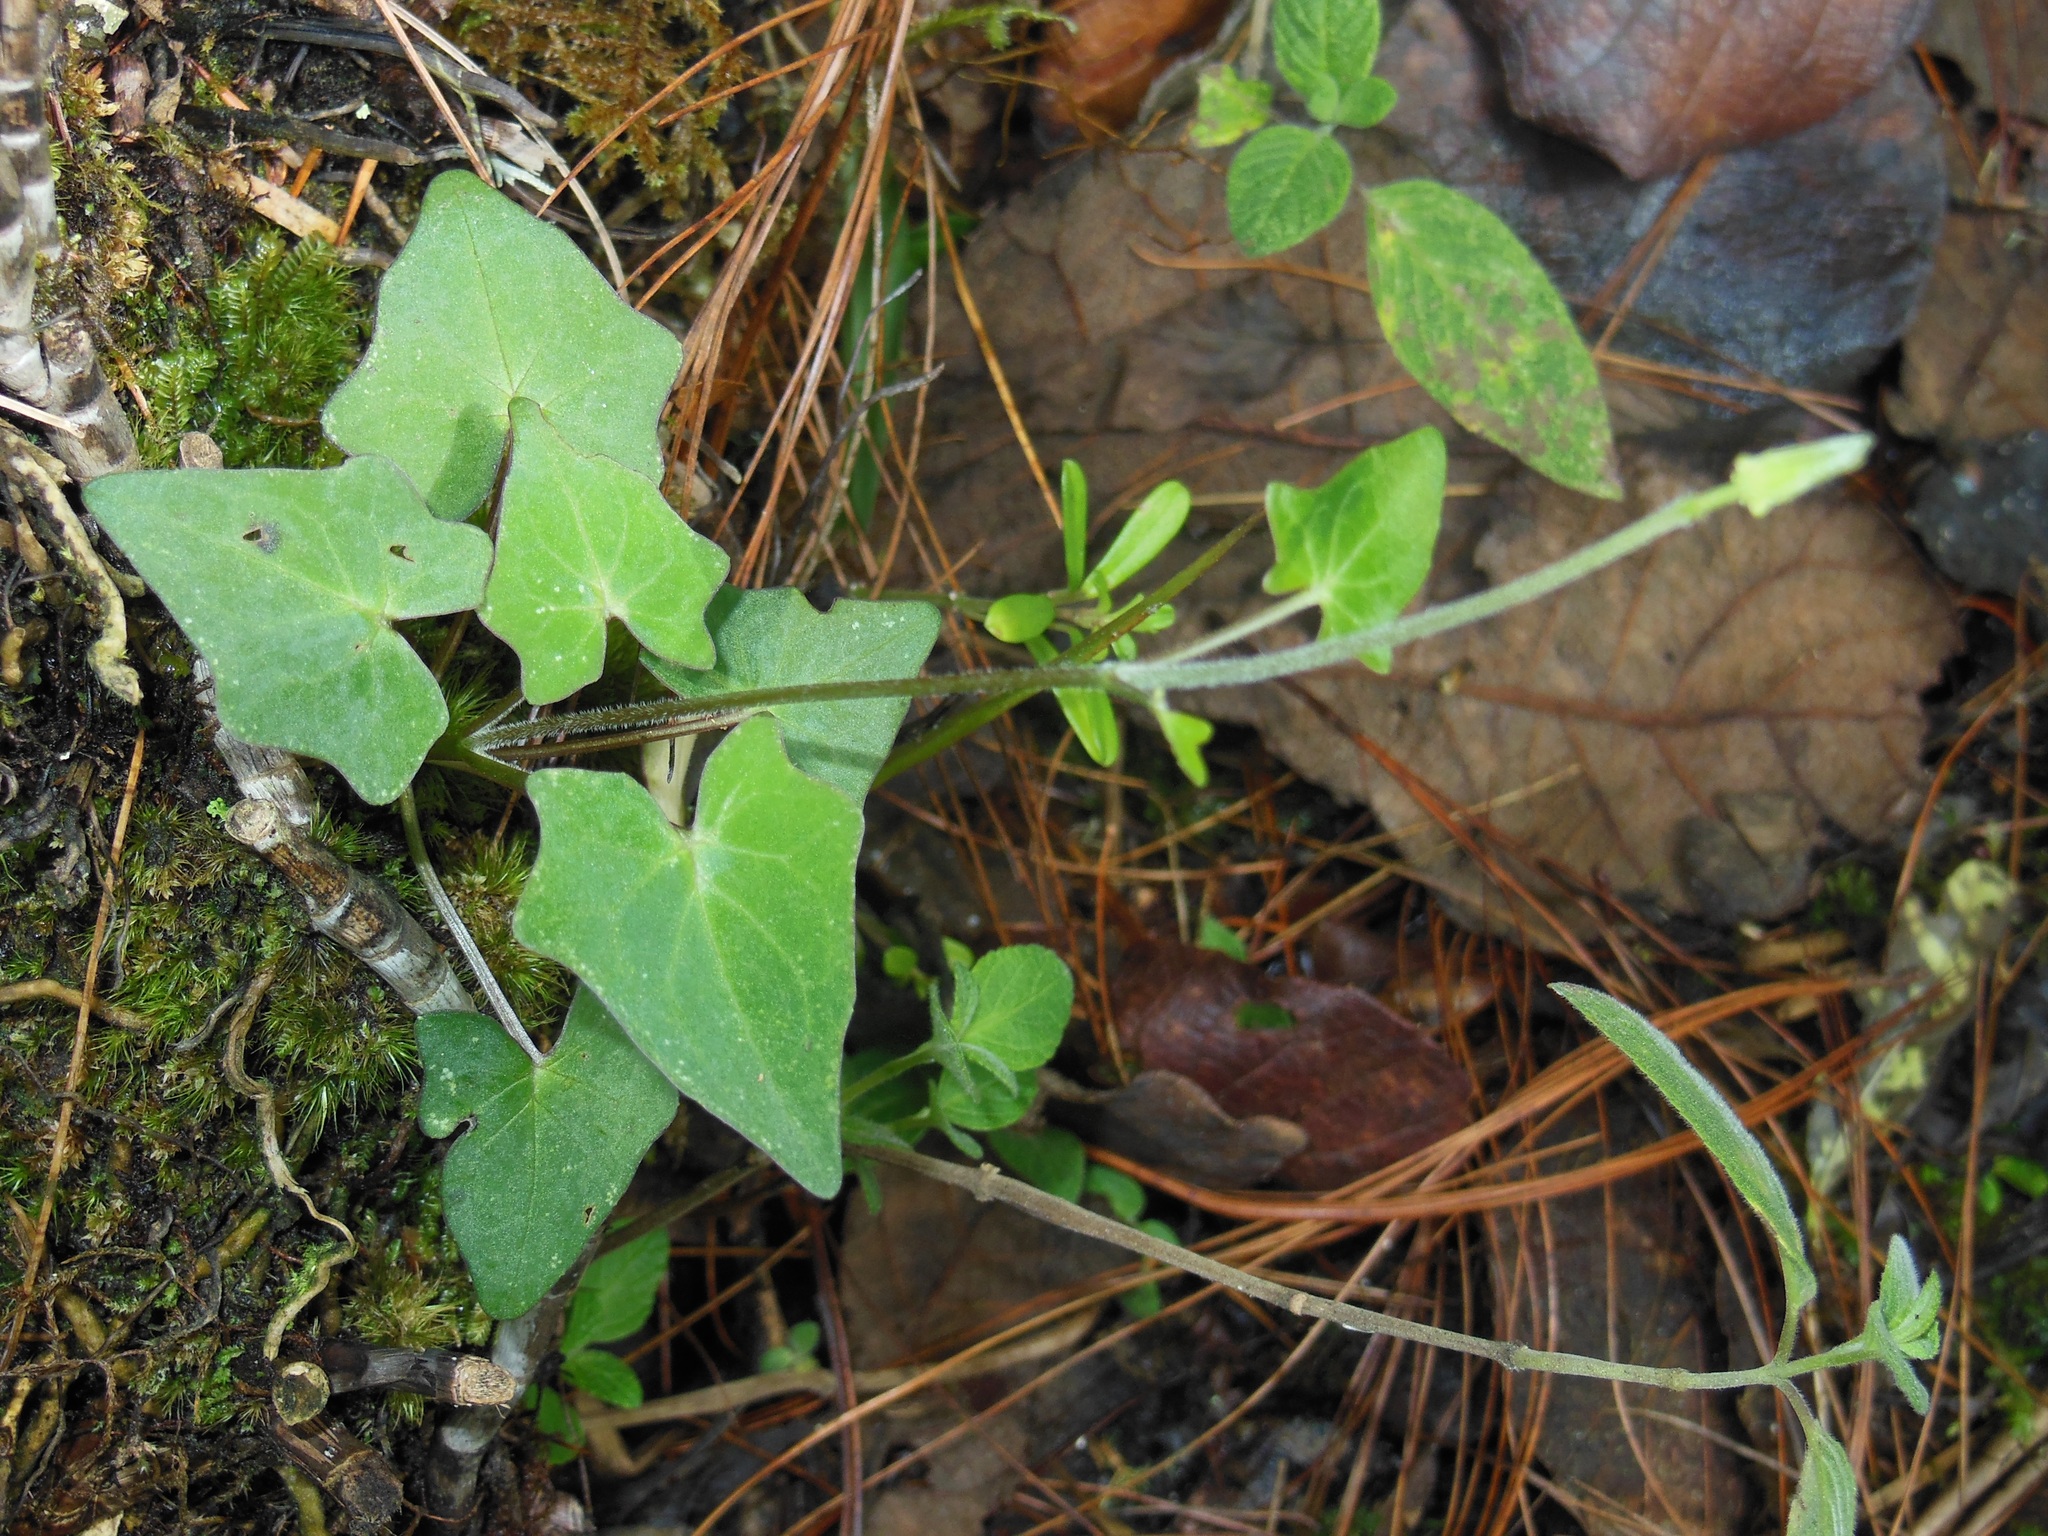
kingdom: Plantae
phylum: Tracheophyta
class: Magnoliopsida
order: Asterales
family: Asteraceae
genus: Mikania
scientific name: Mikania scandens
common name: Climbing hempvine
